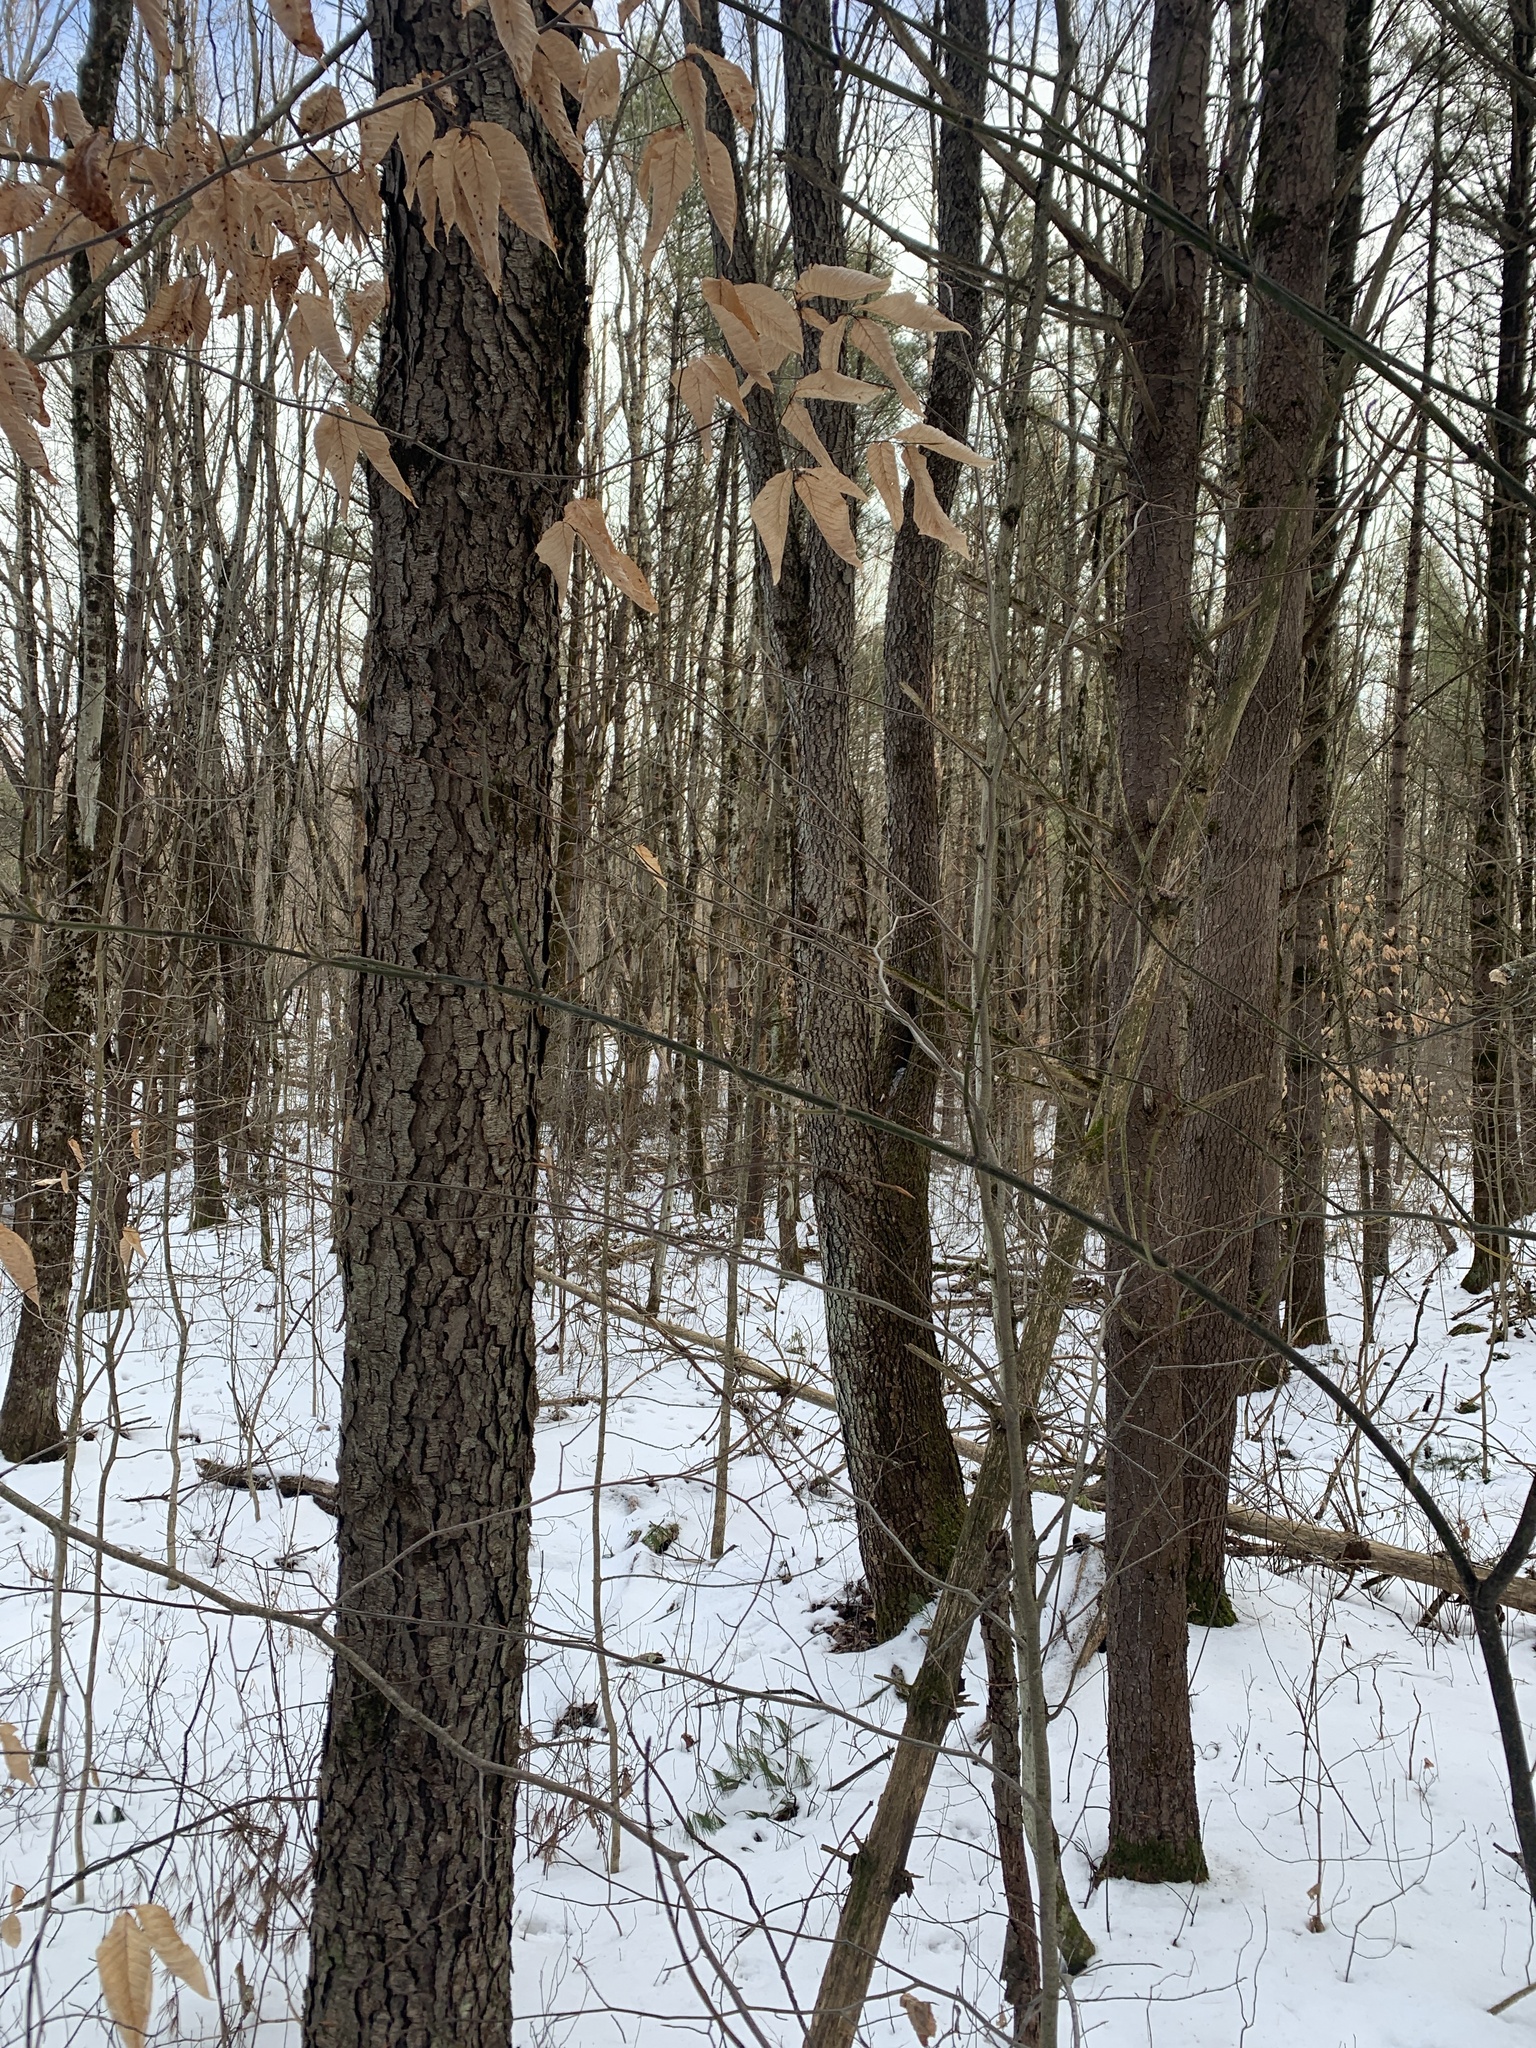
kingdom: Plantae
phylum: Tracheophyta
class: Magnoliopsida
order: Rosales
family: Rosaceae
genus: Prunus
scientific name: Prunus serotina
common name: Black cherry
